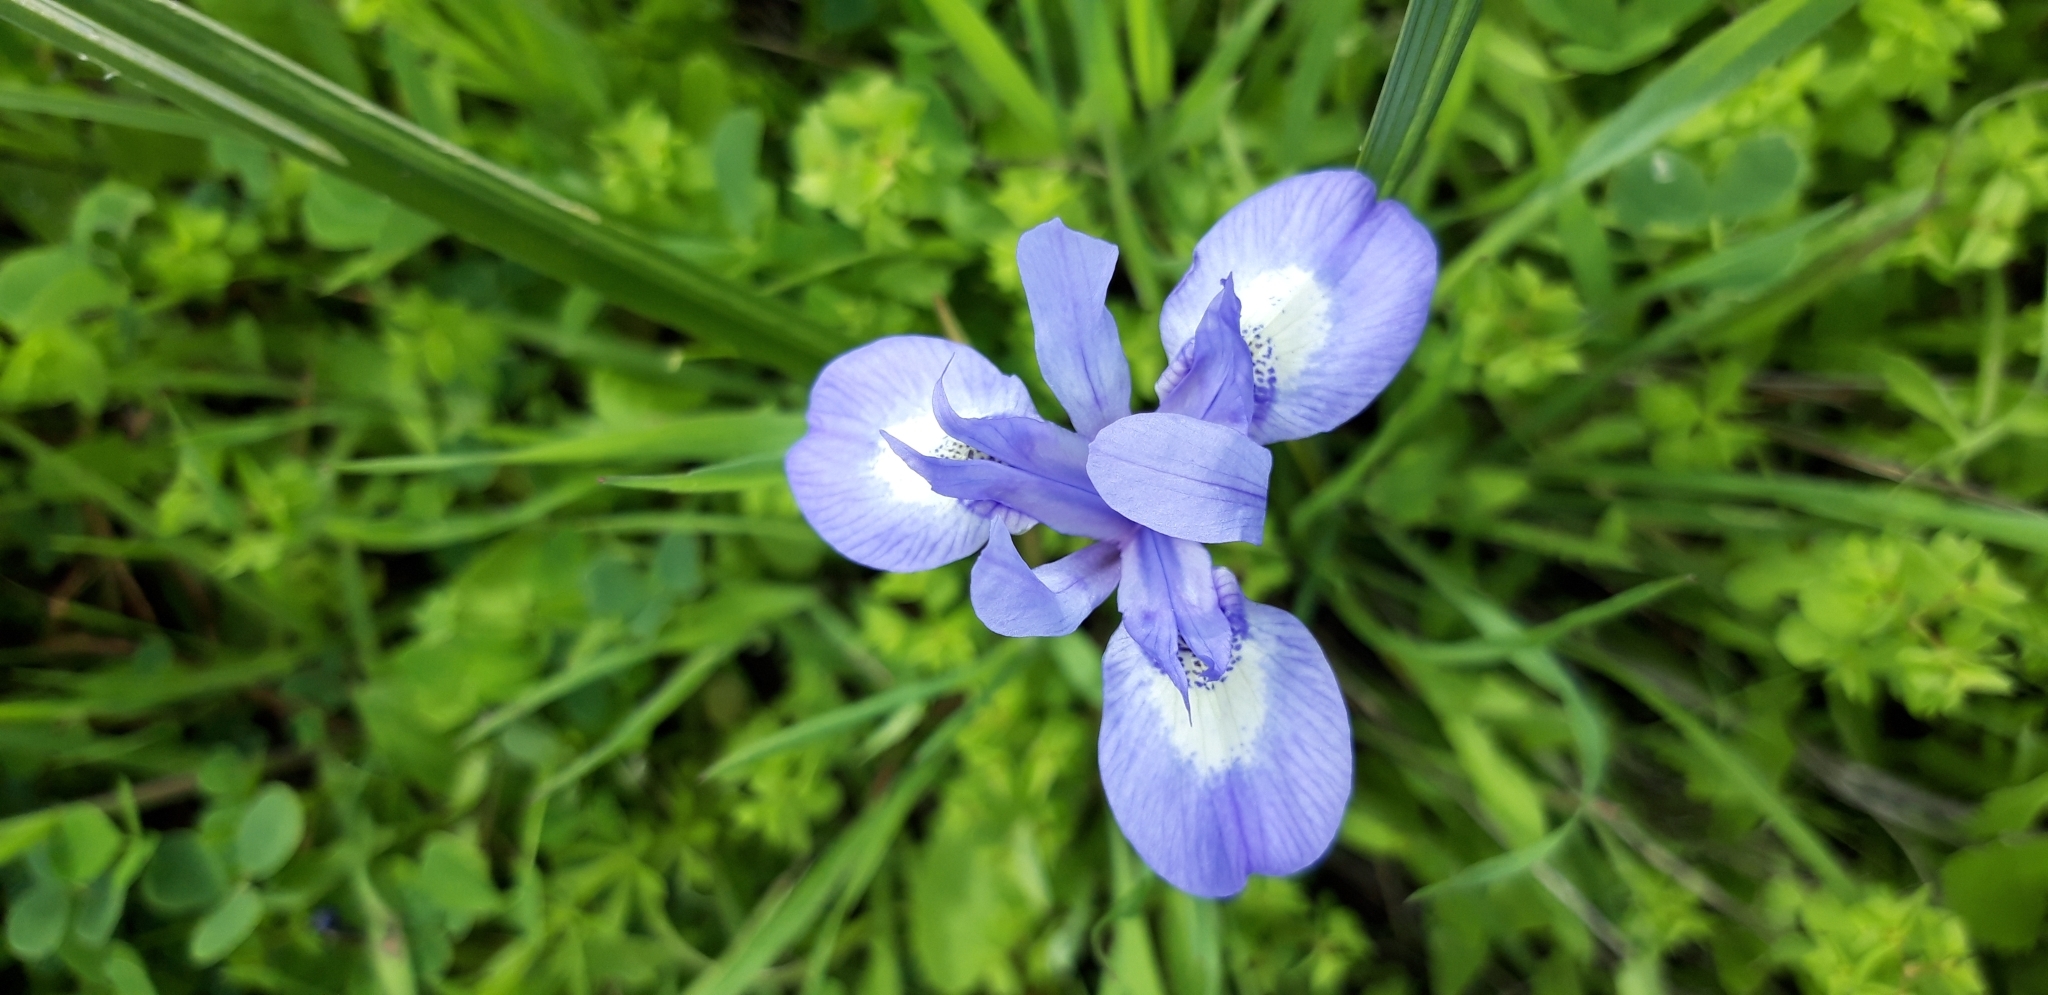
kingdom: Plantae
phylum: Tracheophyta
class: Liliopsida
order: Asparagales
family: Iridaceae
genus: Moraea
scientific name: Moraea sisyrinchium
